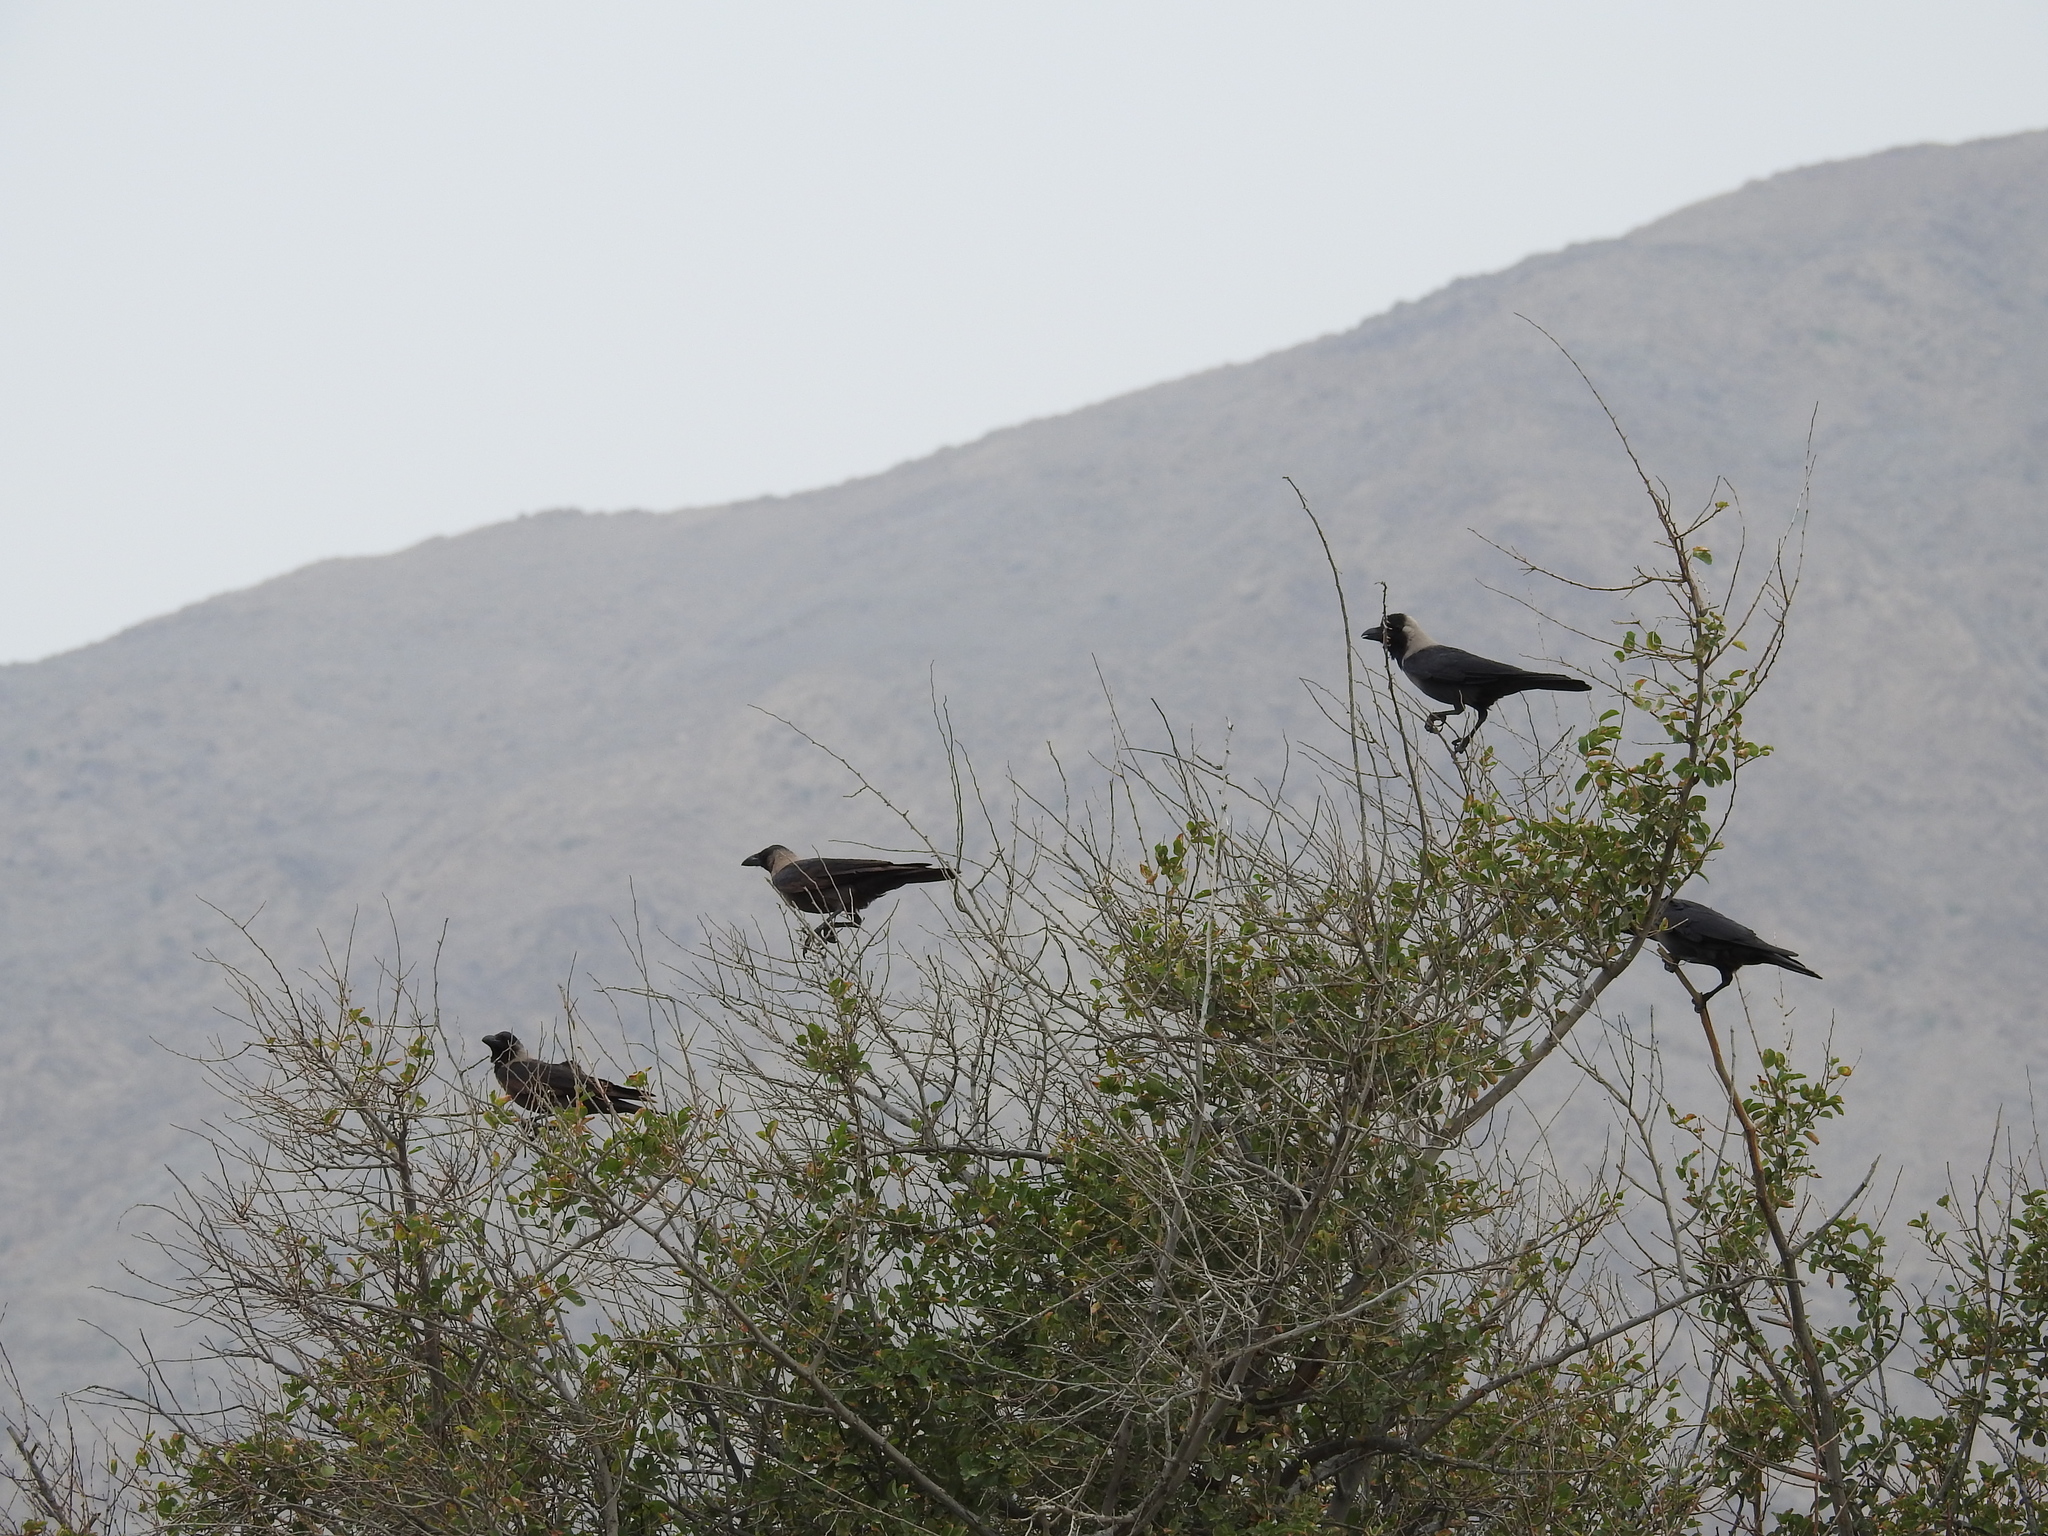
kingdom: Animalia
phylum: Chordata
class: Aves
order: Passeriformes
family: Corvidae
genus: Corvus
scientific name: Corvus splendens
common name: House crow
